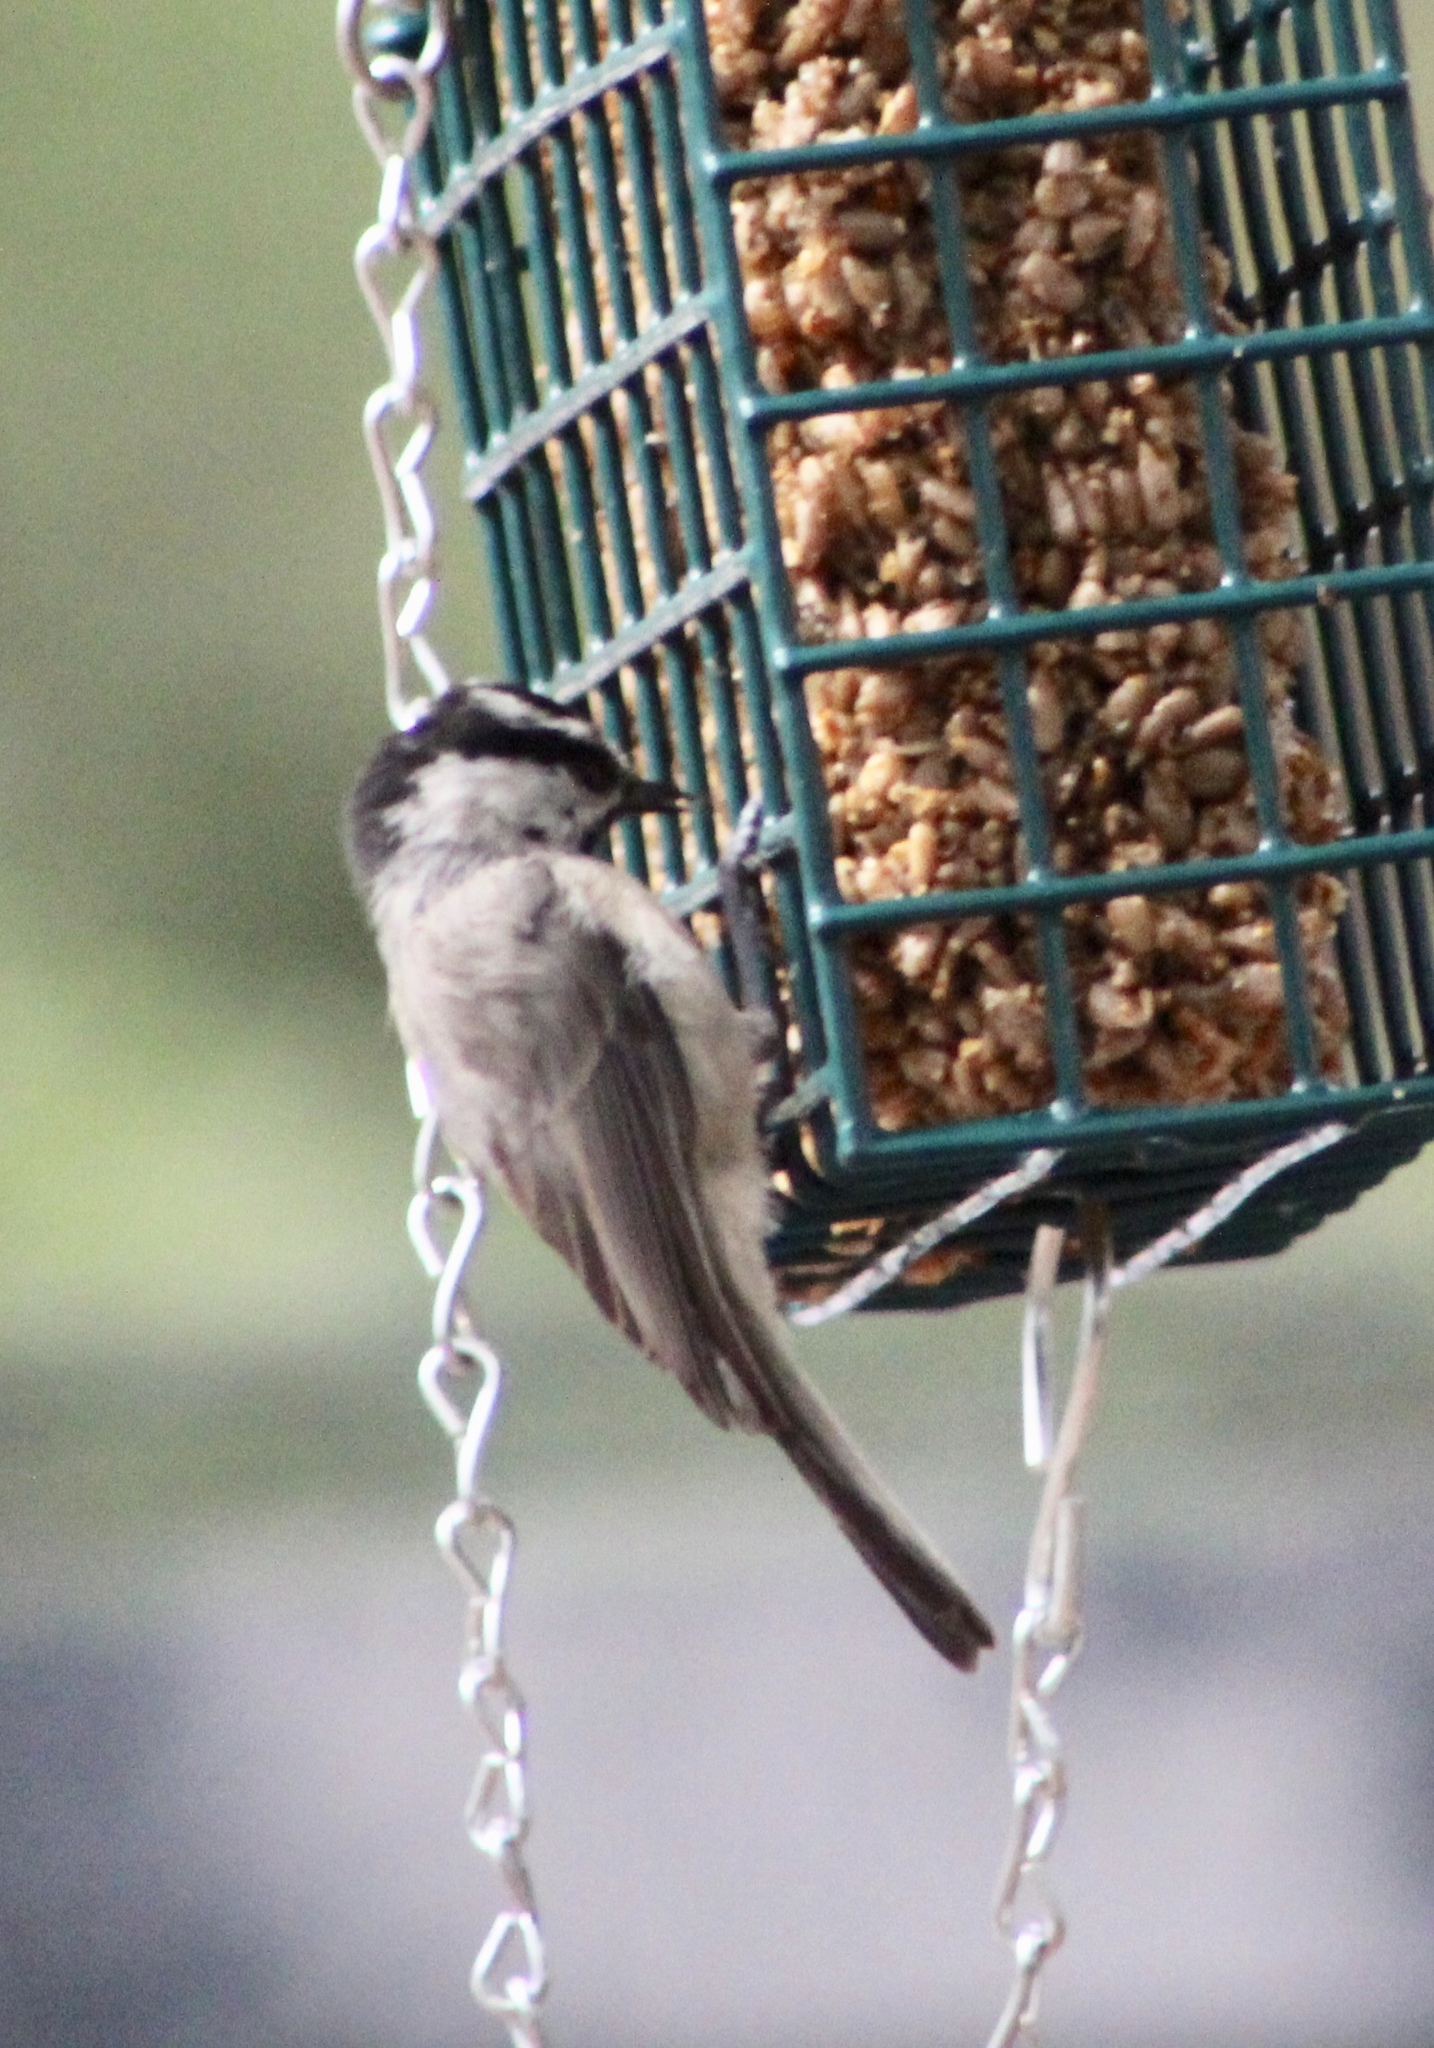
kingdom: Animalia
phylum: Chordata
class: Aves
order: Passeriformes
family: Paridae
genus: Poecile
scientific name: Poecile gambeli
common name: Mountain chickadee
